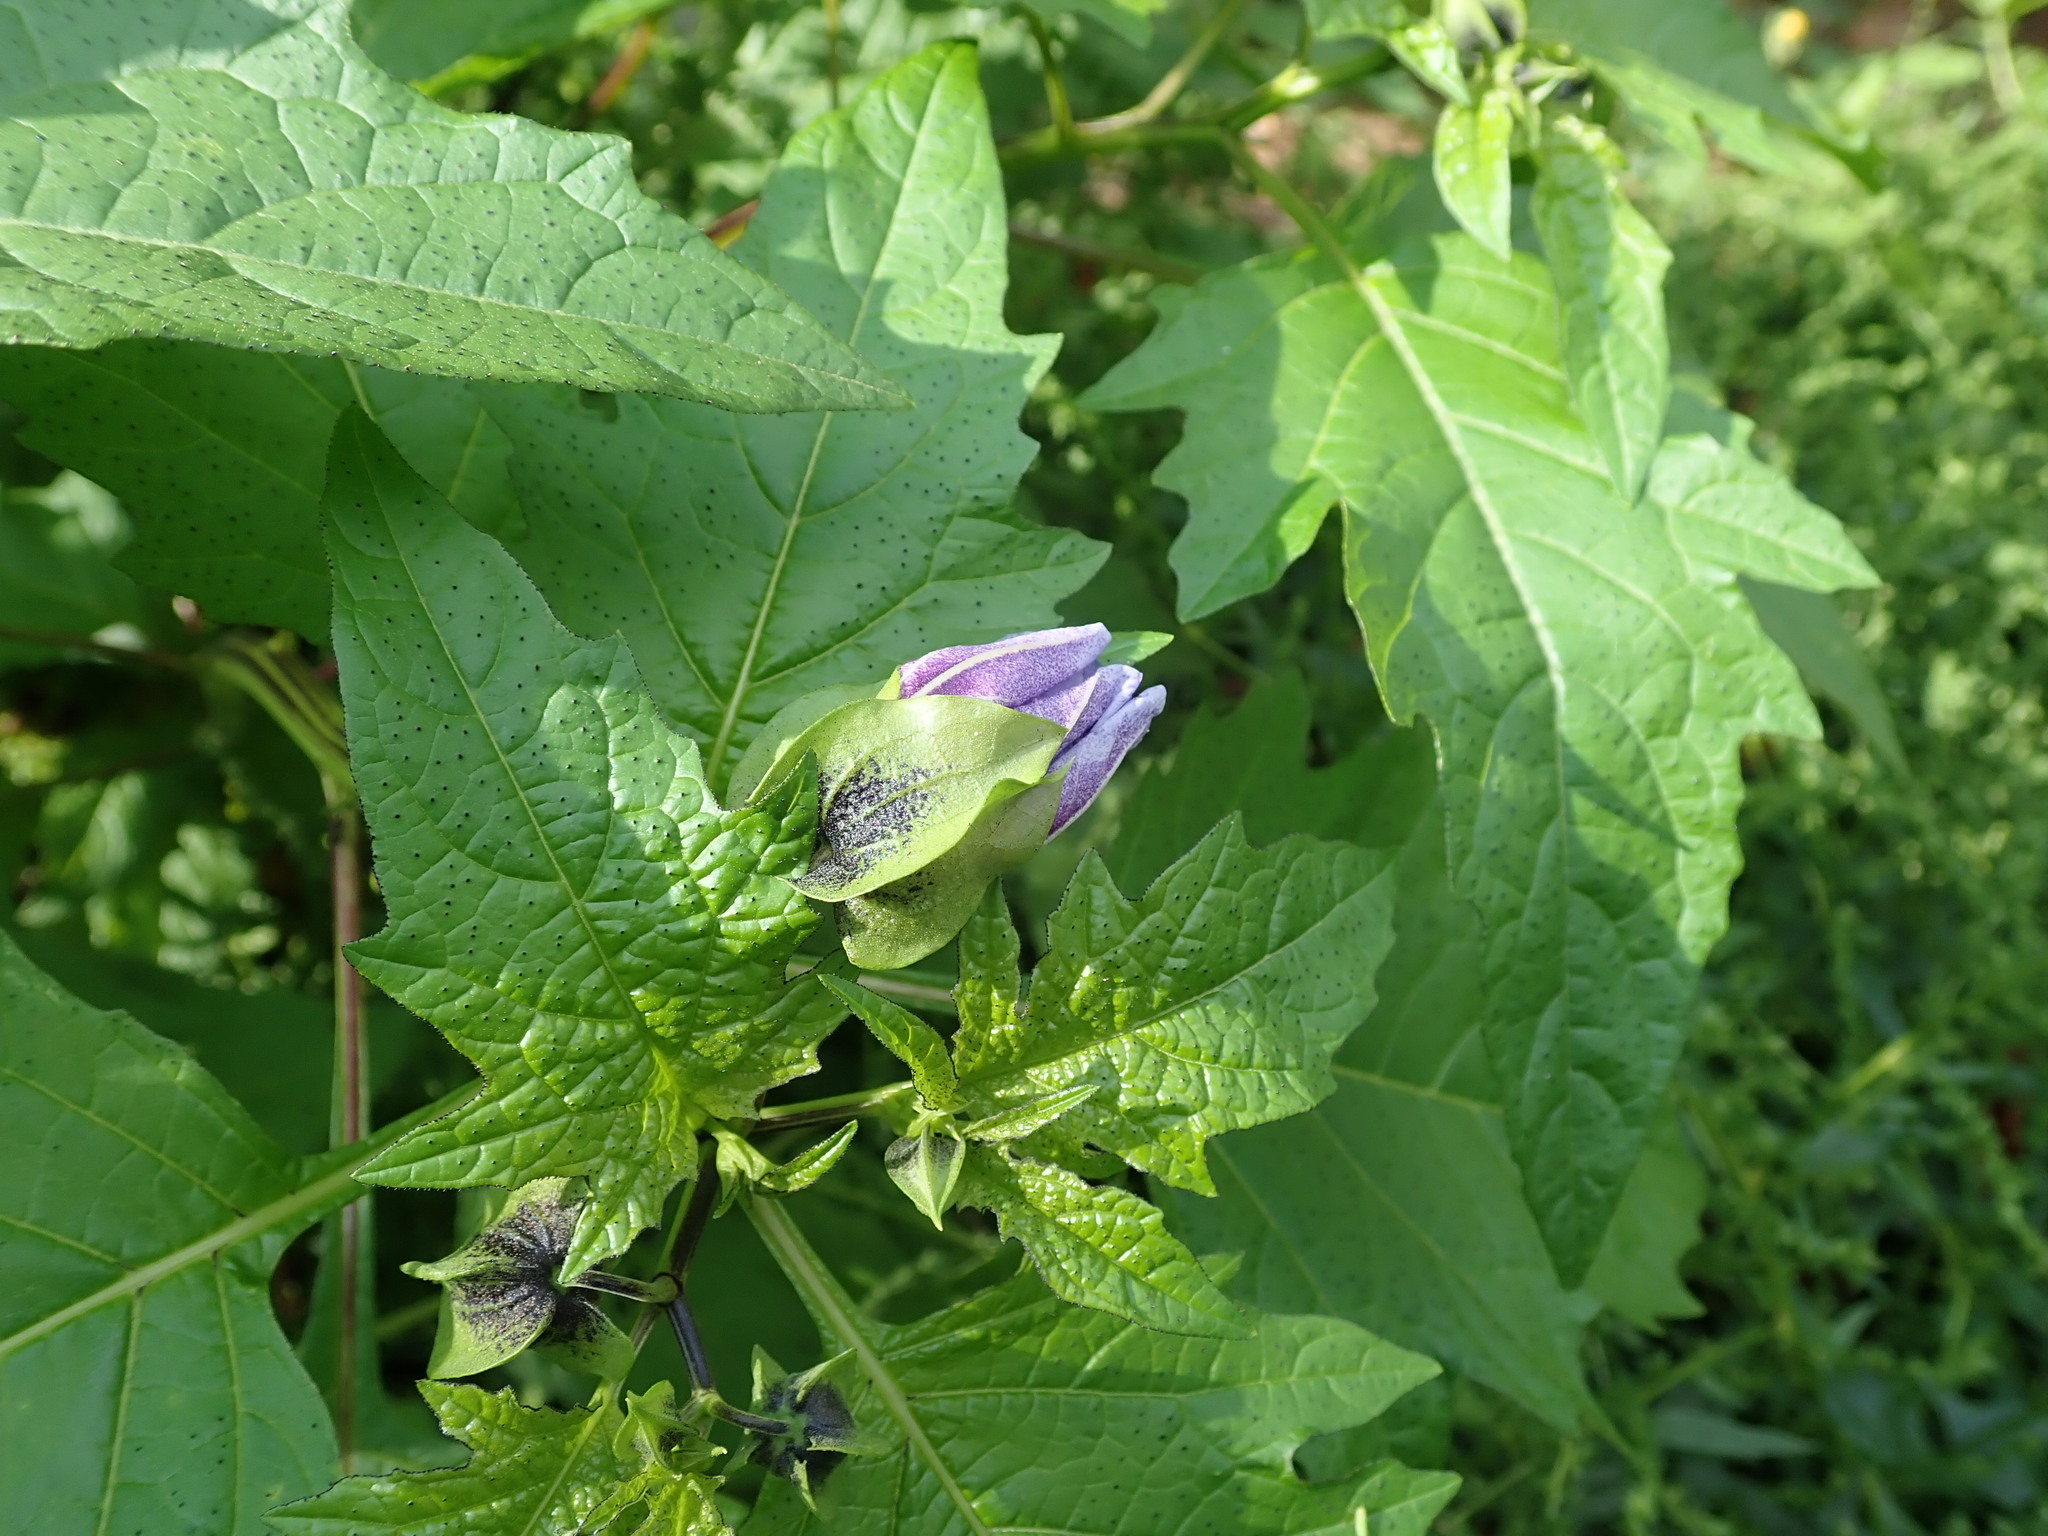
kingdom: Plantae
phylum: Tracheophyta
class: Magnoliopsida
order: Solanales
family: Solanaceae
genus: Nicandra
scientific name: Nicandra physalodes
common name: Apple-of-peru
